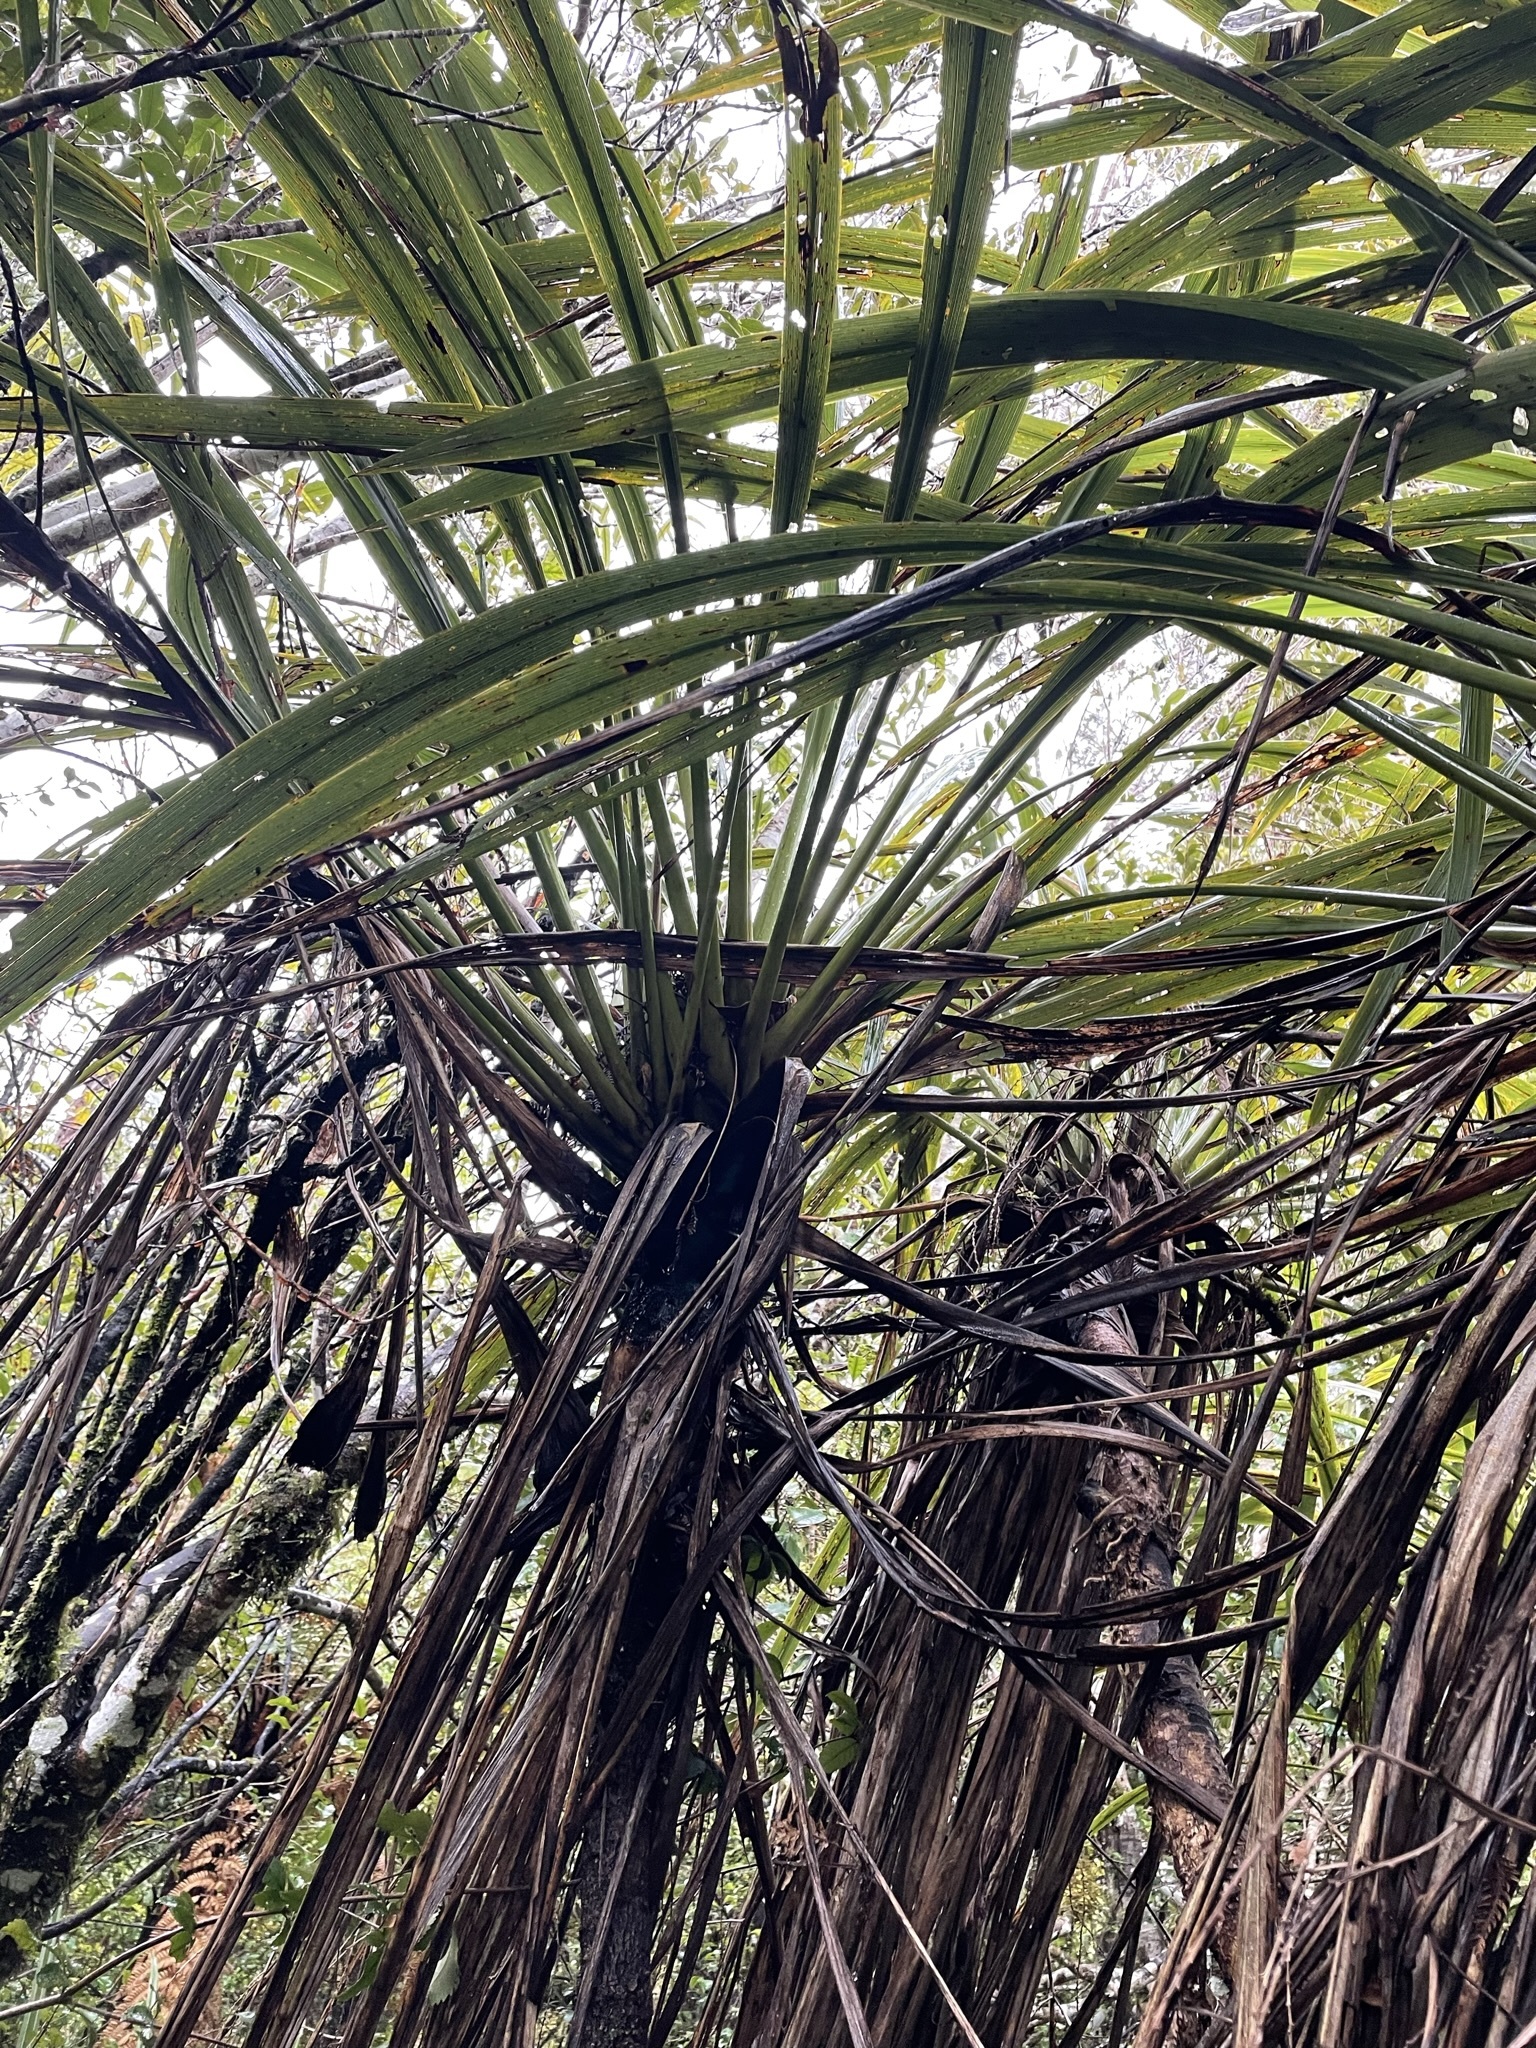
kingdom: Plantae
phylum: Tracheophyta
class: Liliopsida
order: Asparagales
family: Asparagaceae
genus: Cordyline
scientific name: Cordyline banksii
